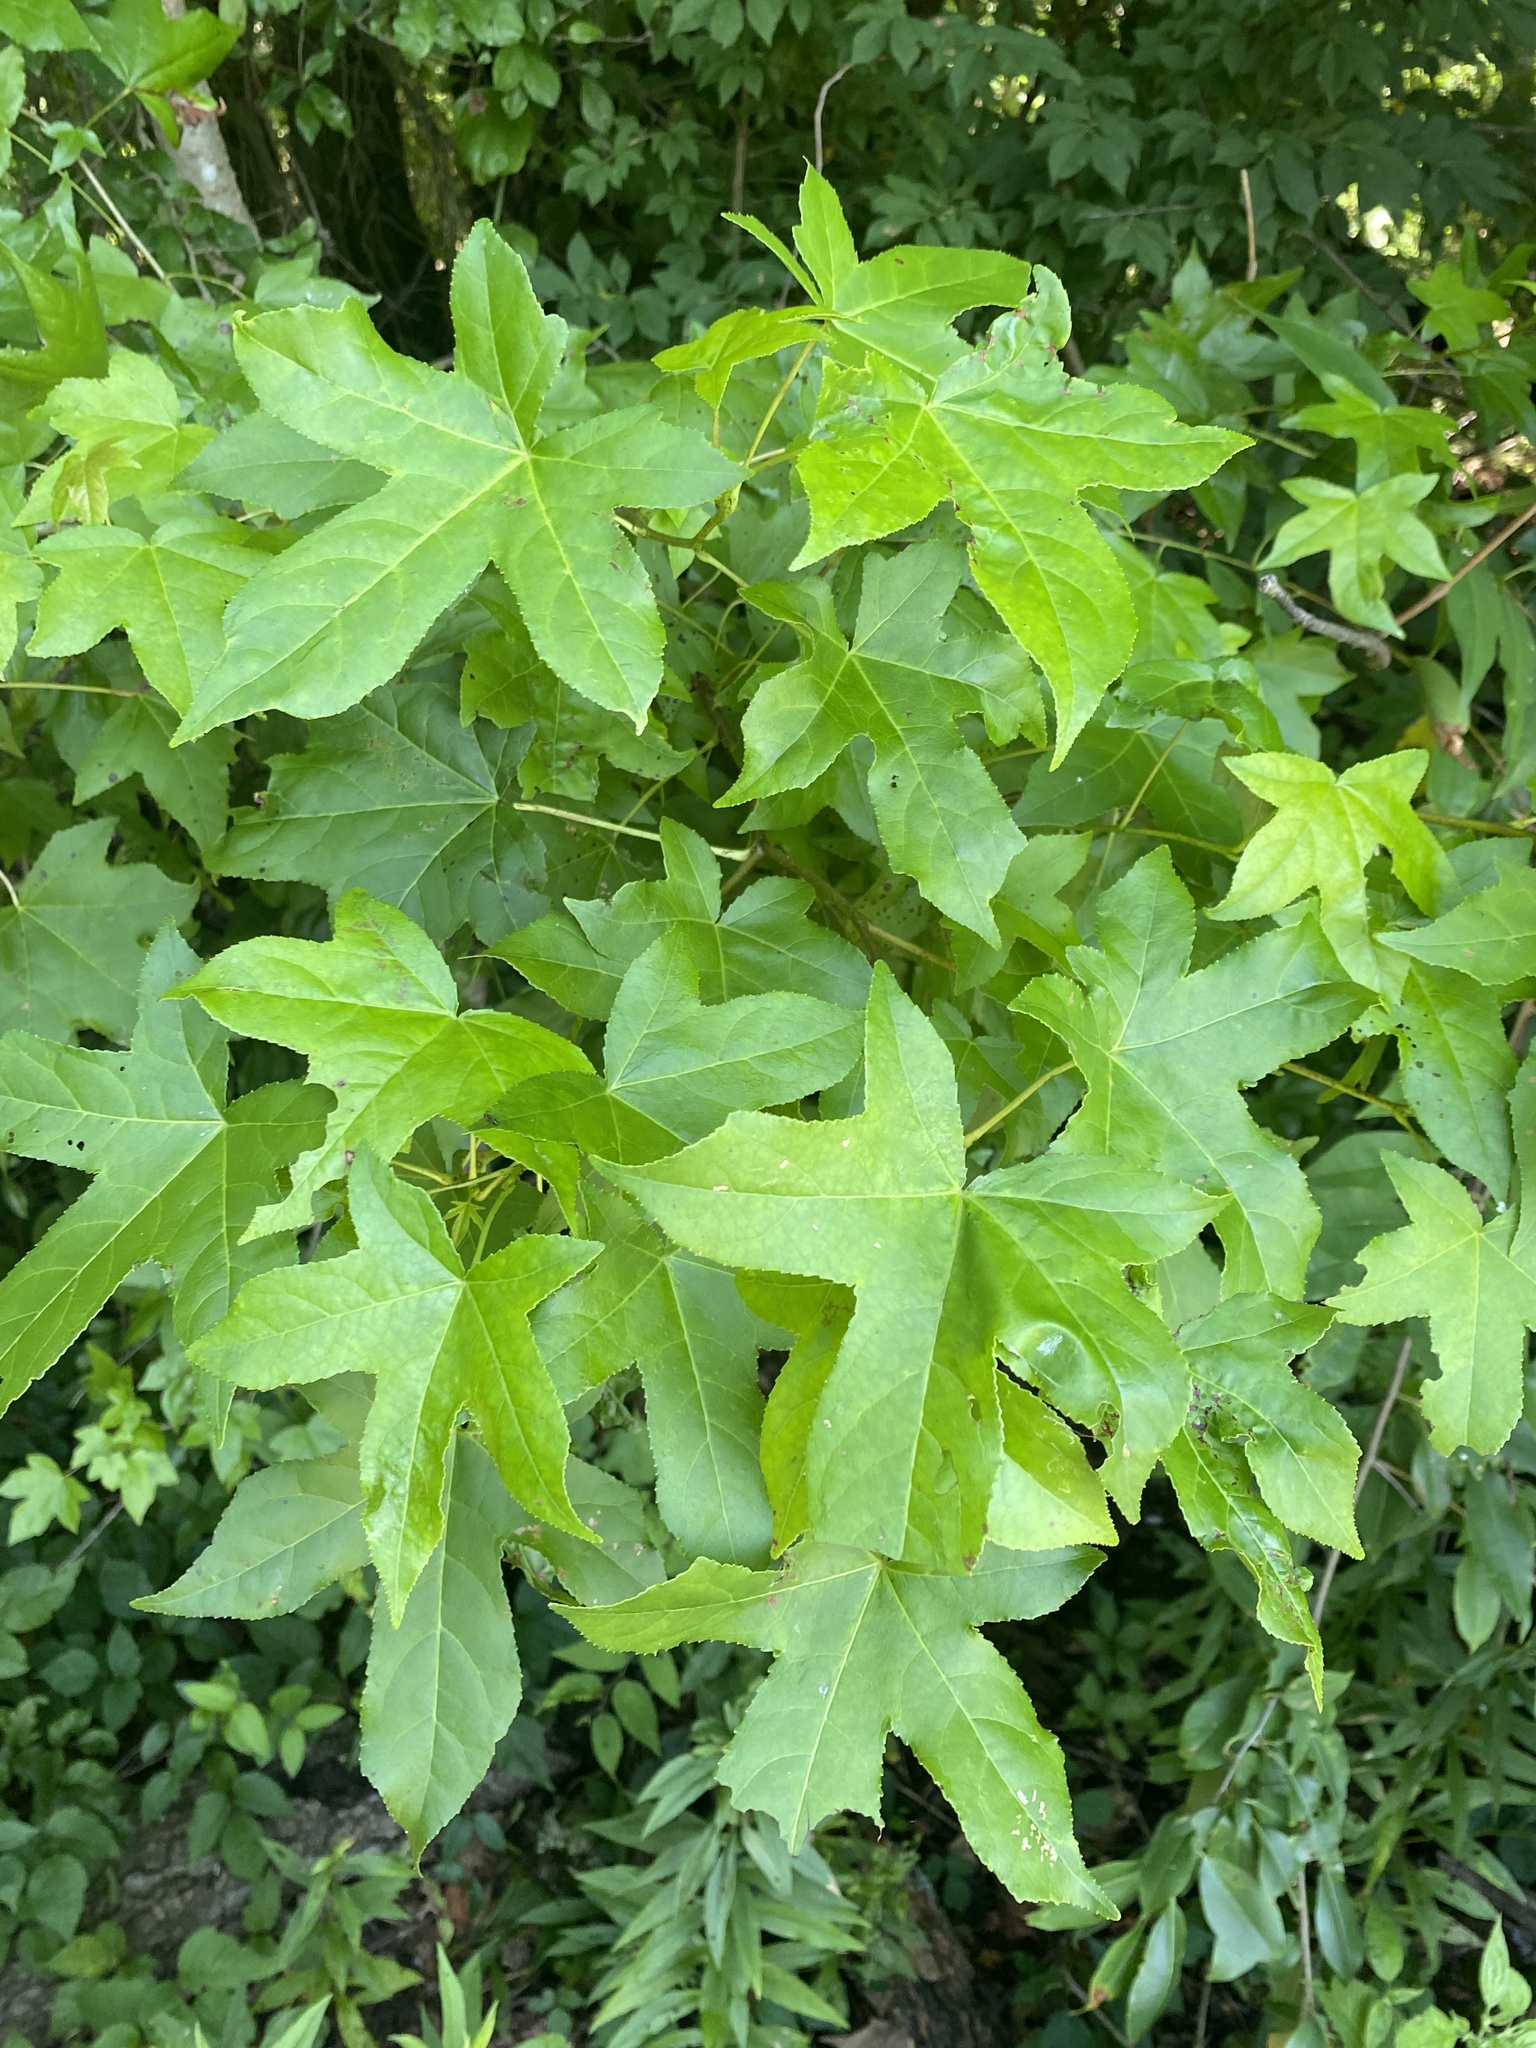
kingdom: Plantae
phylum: Tracheophyta
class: Magnoliopsida
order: Saxifragales
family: Altingiaceae
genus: Liquidambar
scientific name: Liquidambar styraciflua
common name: Sweet gum
